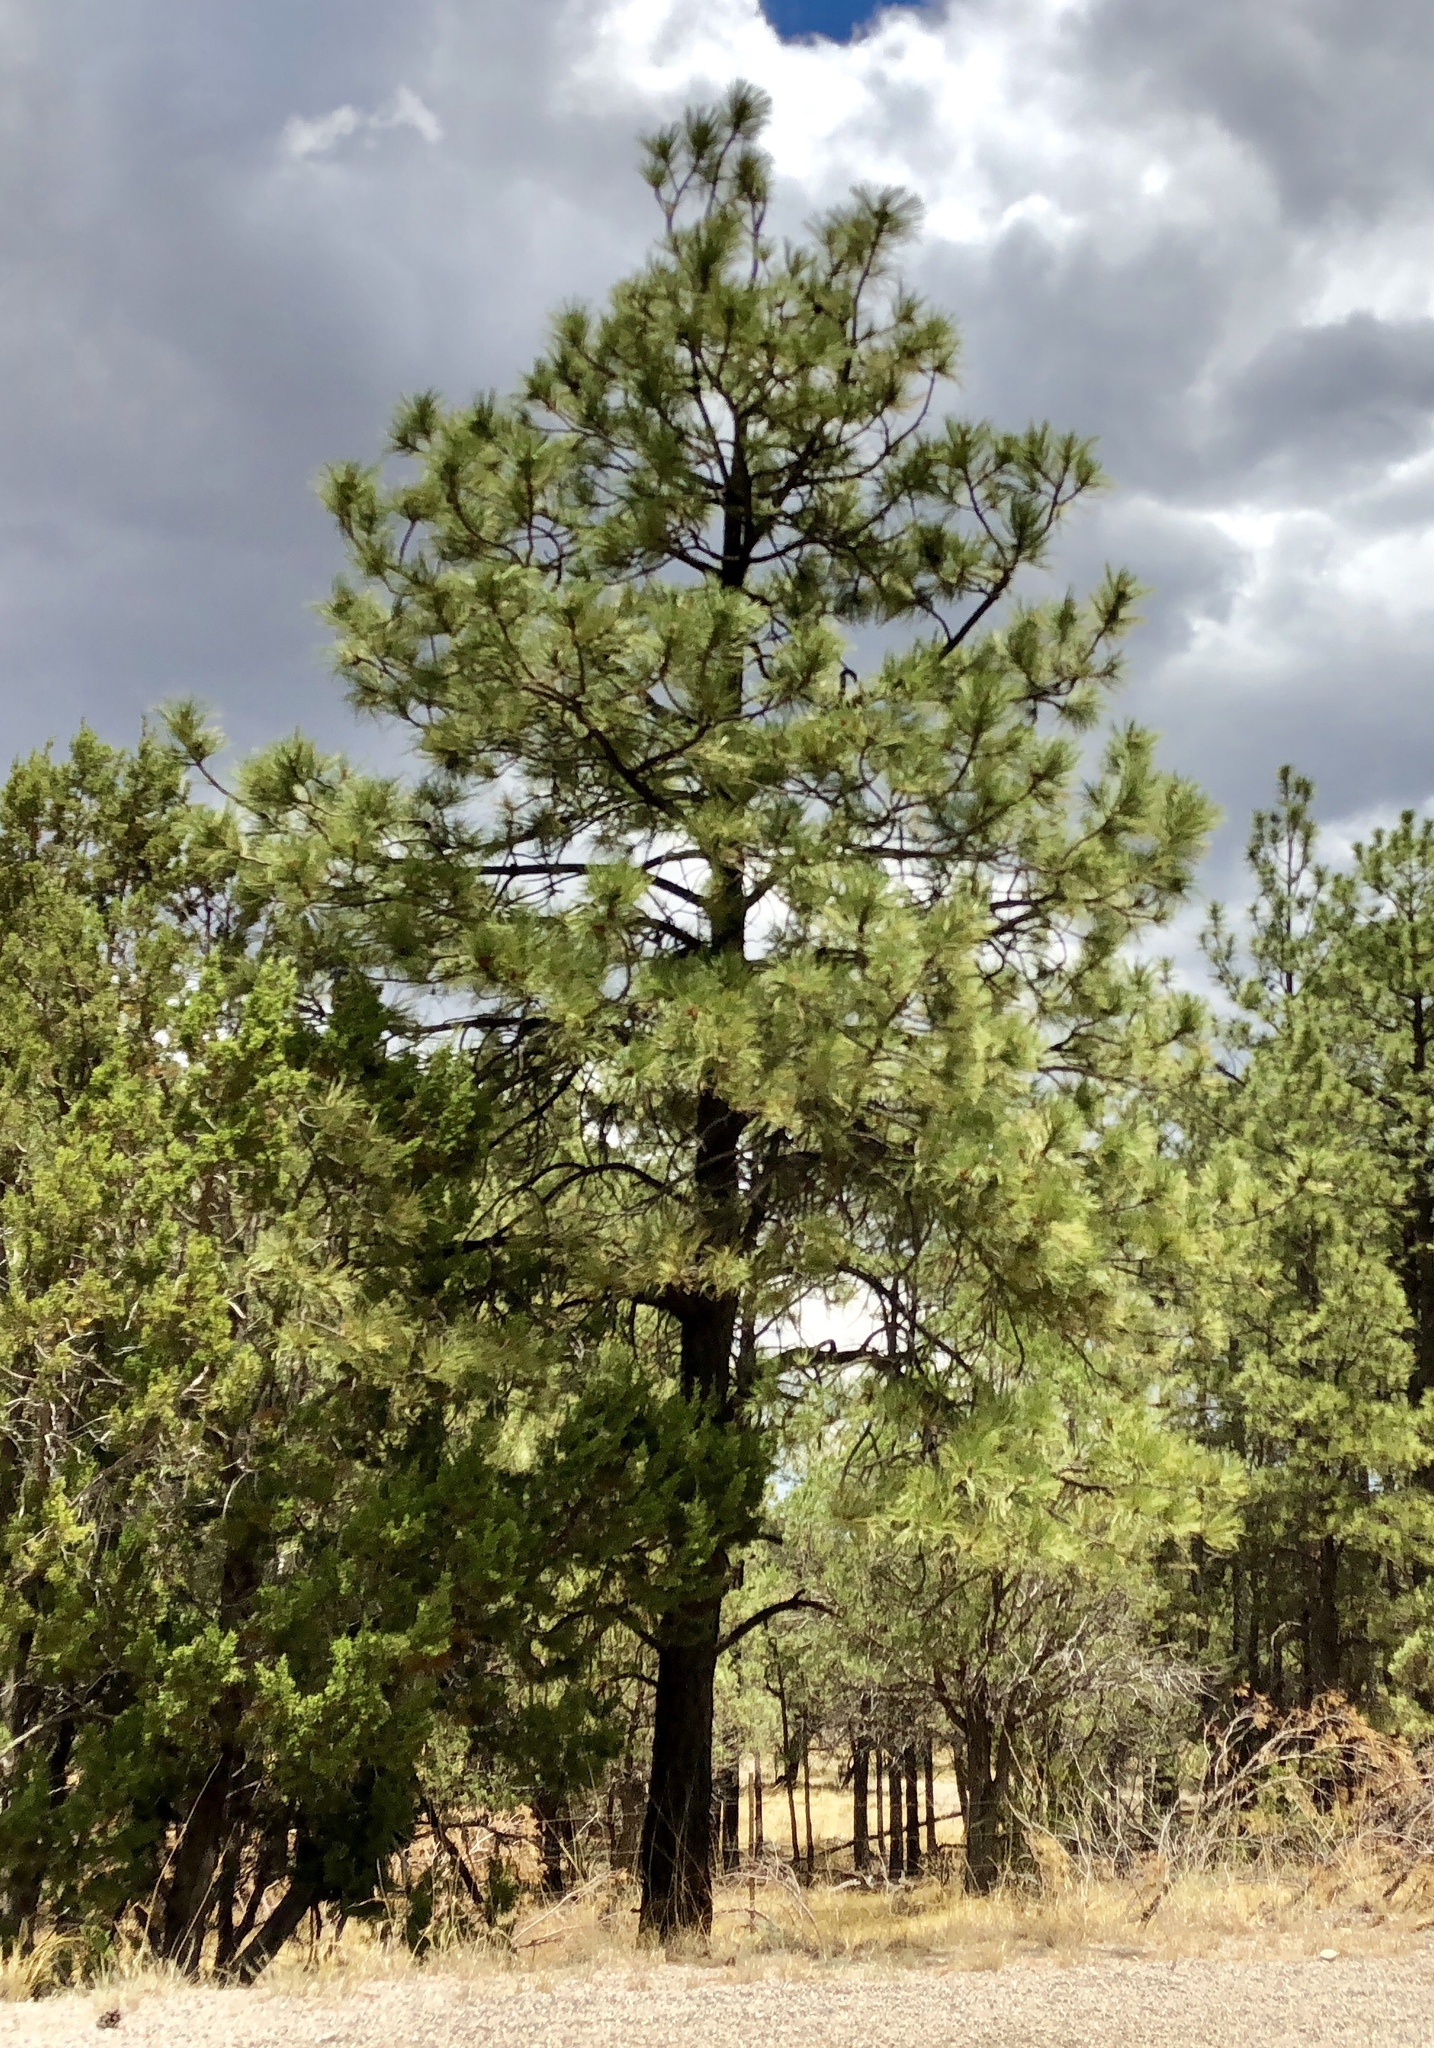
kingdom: Plantae
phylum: Tracheophyta
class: Pinopsida
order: Pinales
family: Pinaceae
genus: Pinus
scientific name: Pinus ponderosa
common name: Western yellow-pine
